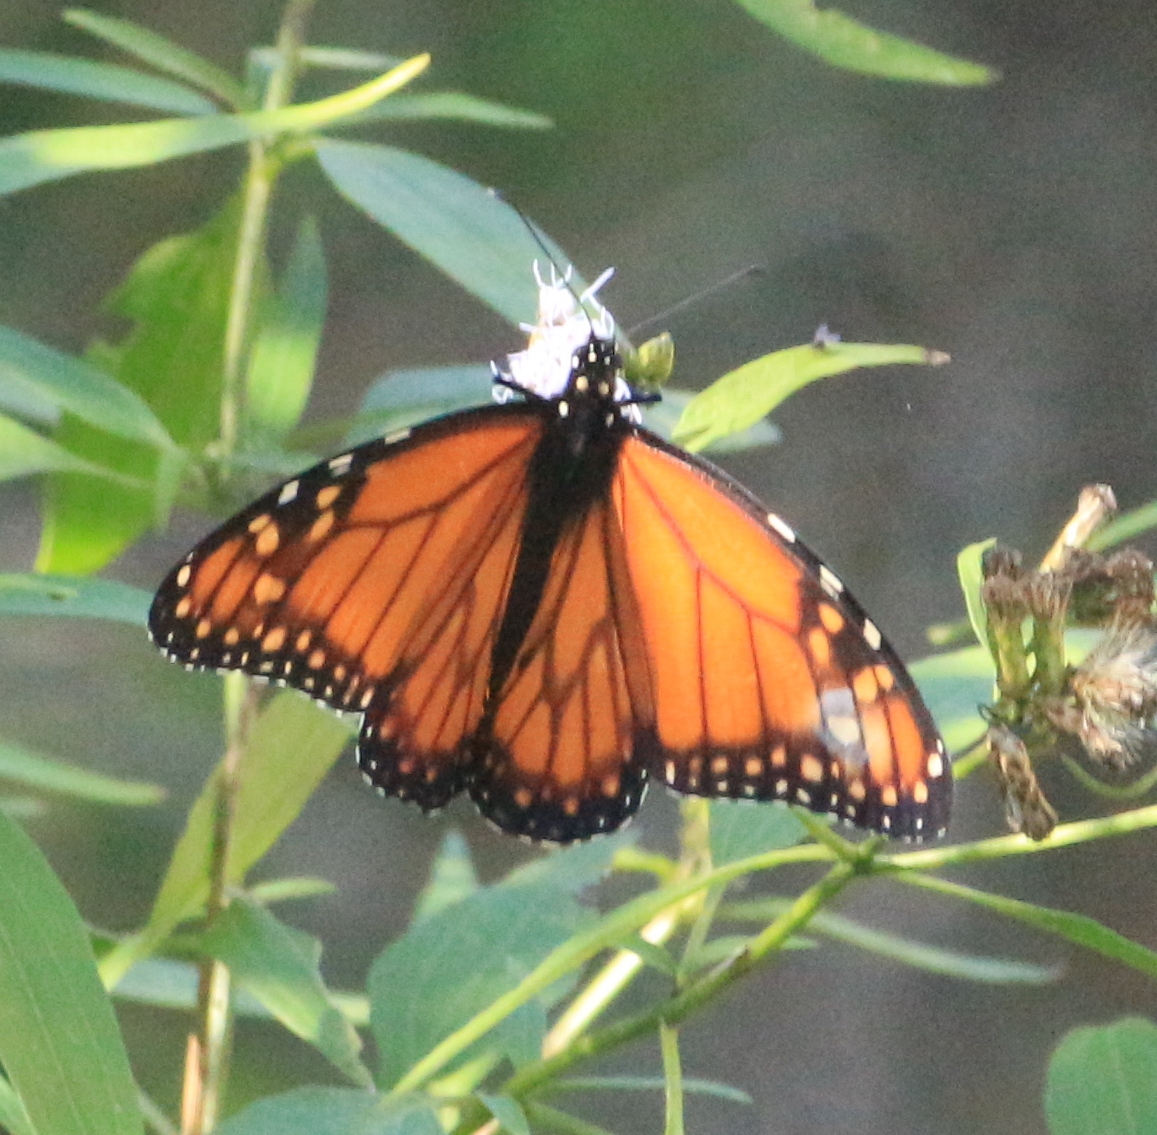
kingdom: Animalia
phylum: Arthropoda
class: Insecta
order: Lepidoptera
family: Nymphalidae
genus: Danaus
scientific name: Danaus erippus
